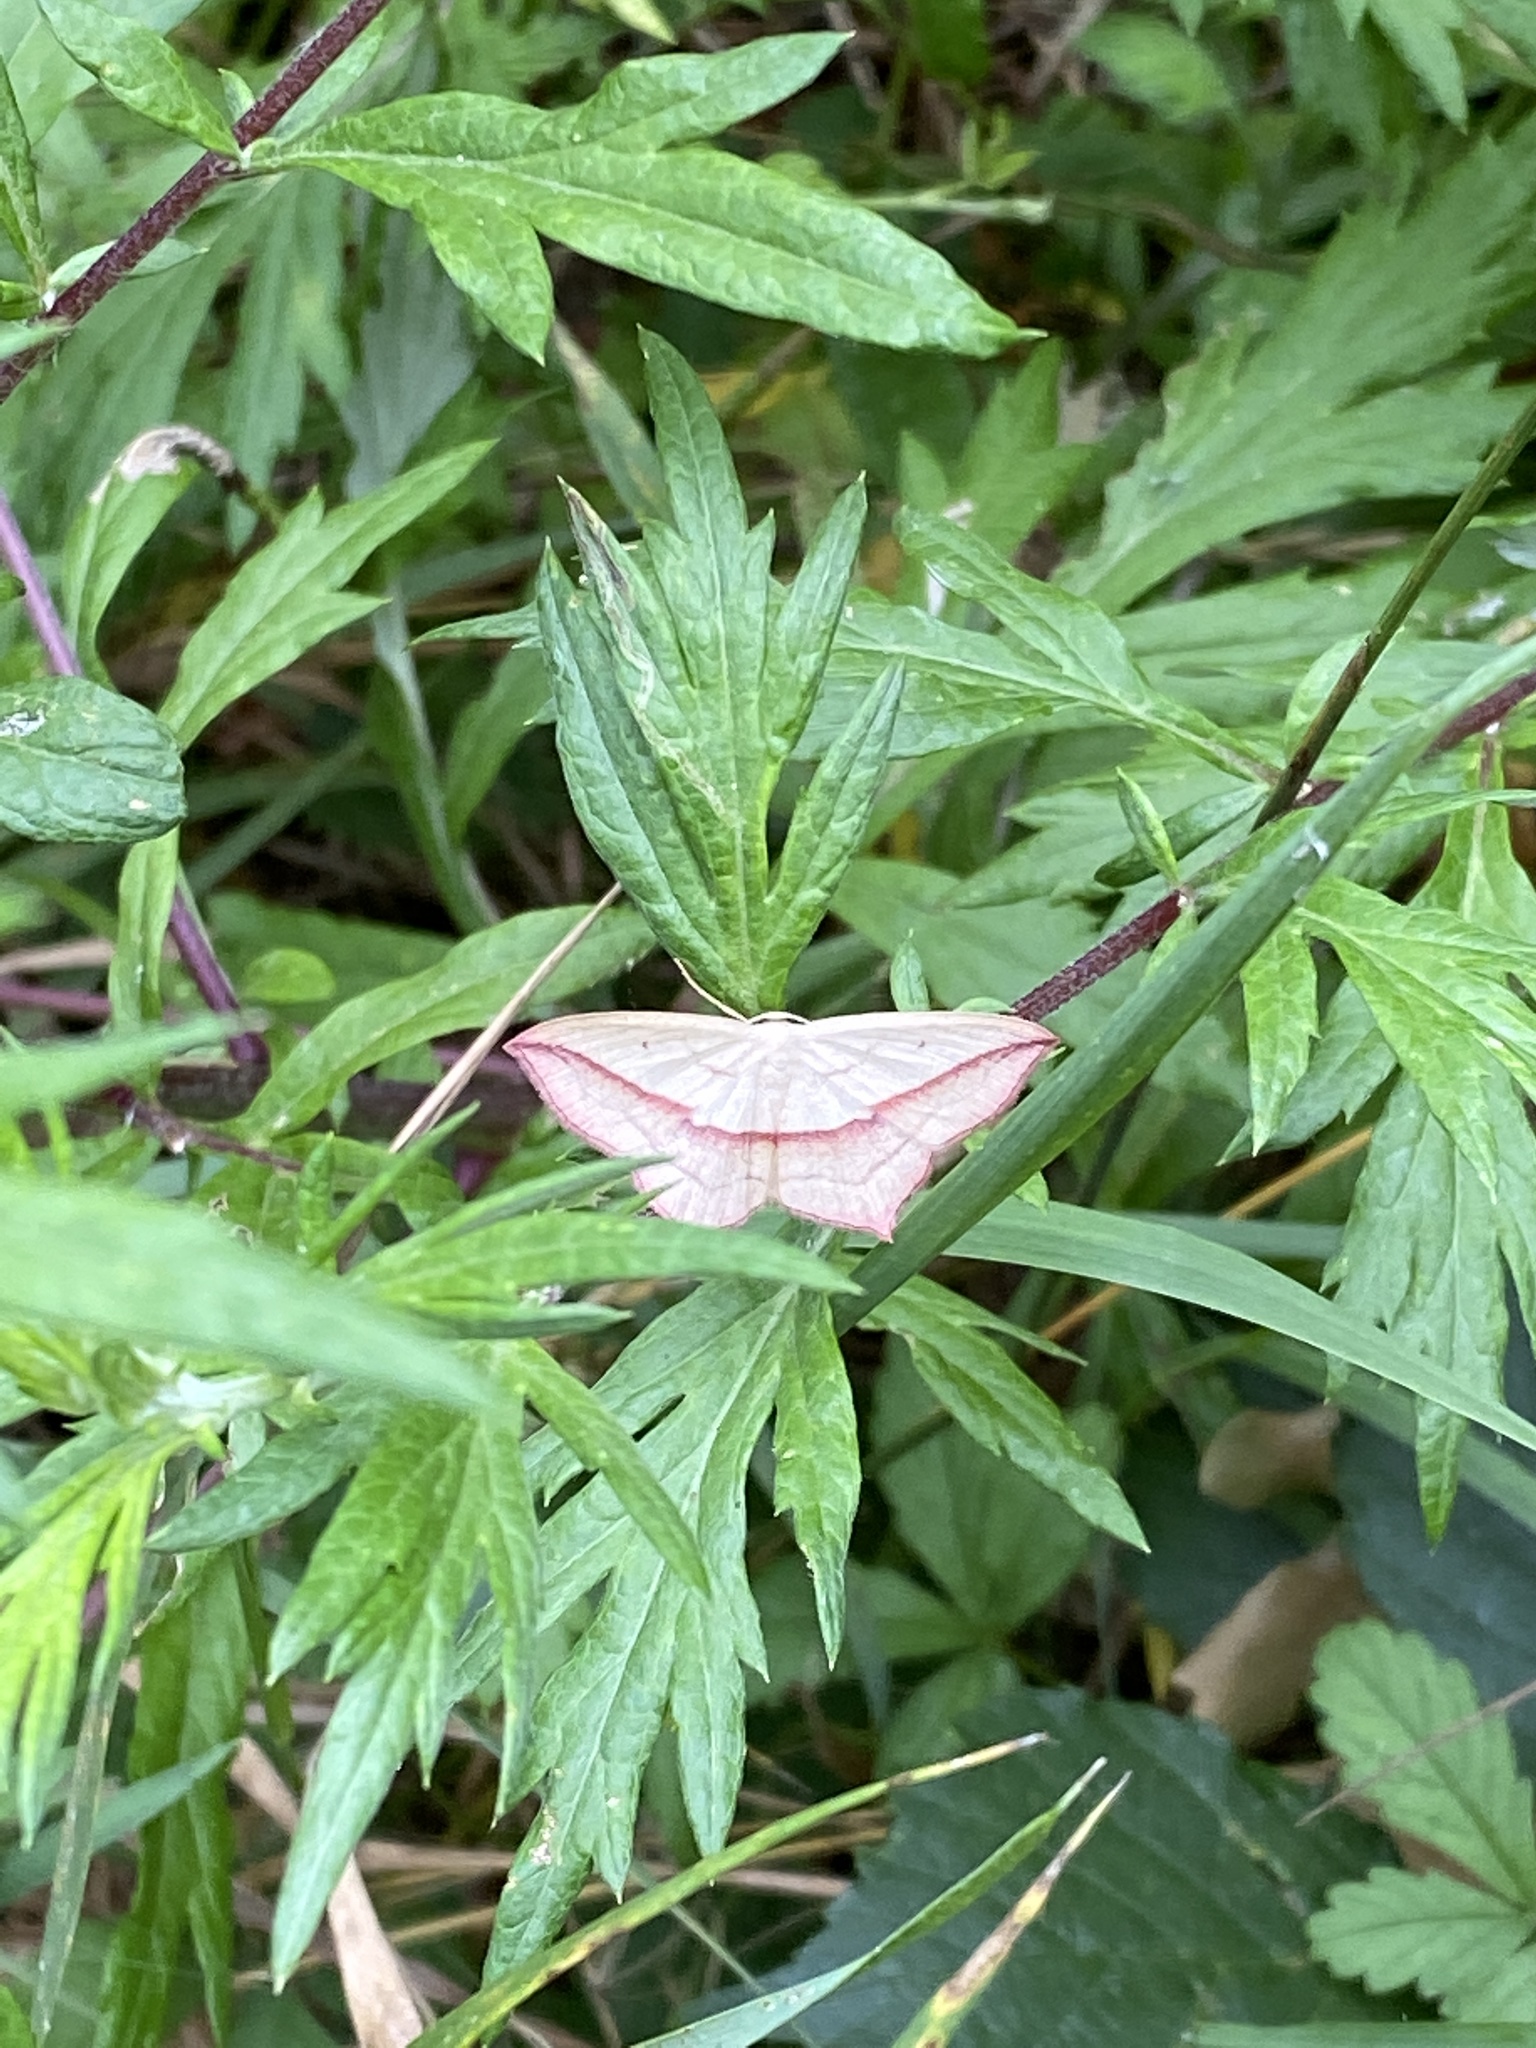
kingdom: Animalia
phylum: Arthropoda
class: Insecta
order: Lepidoptera
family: Geometridae
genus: Timandra
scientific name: Timandra comae
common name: Blood-vein
